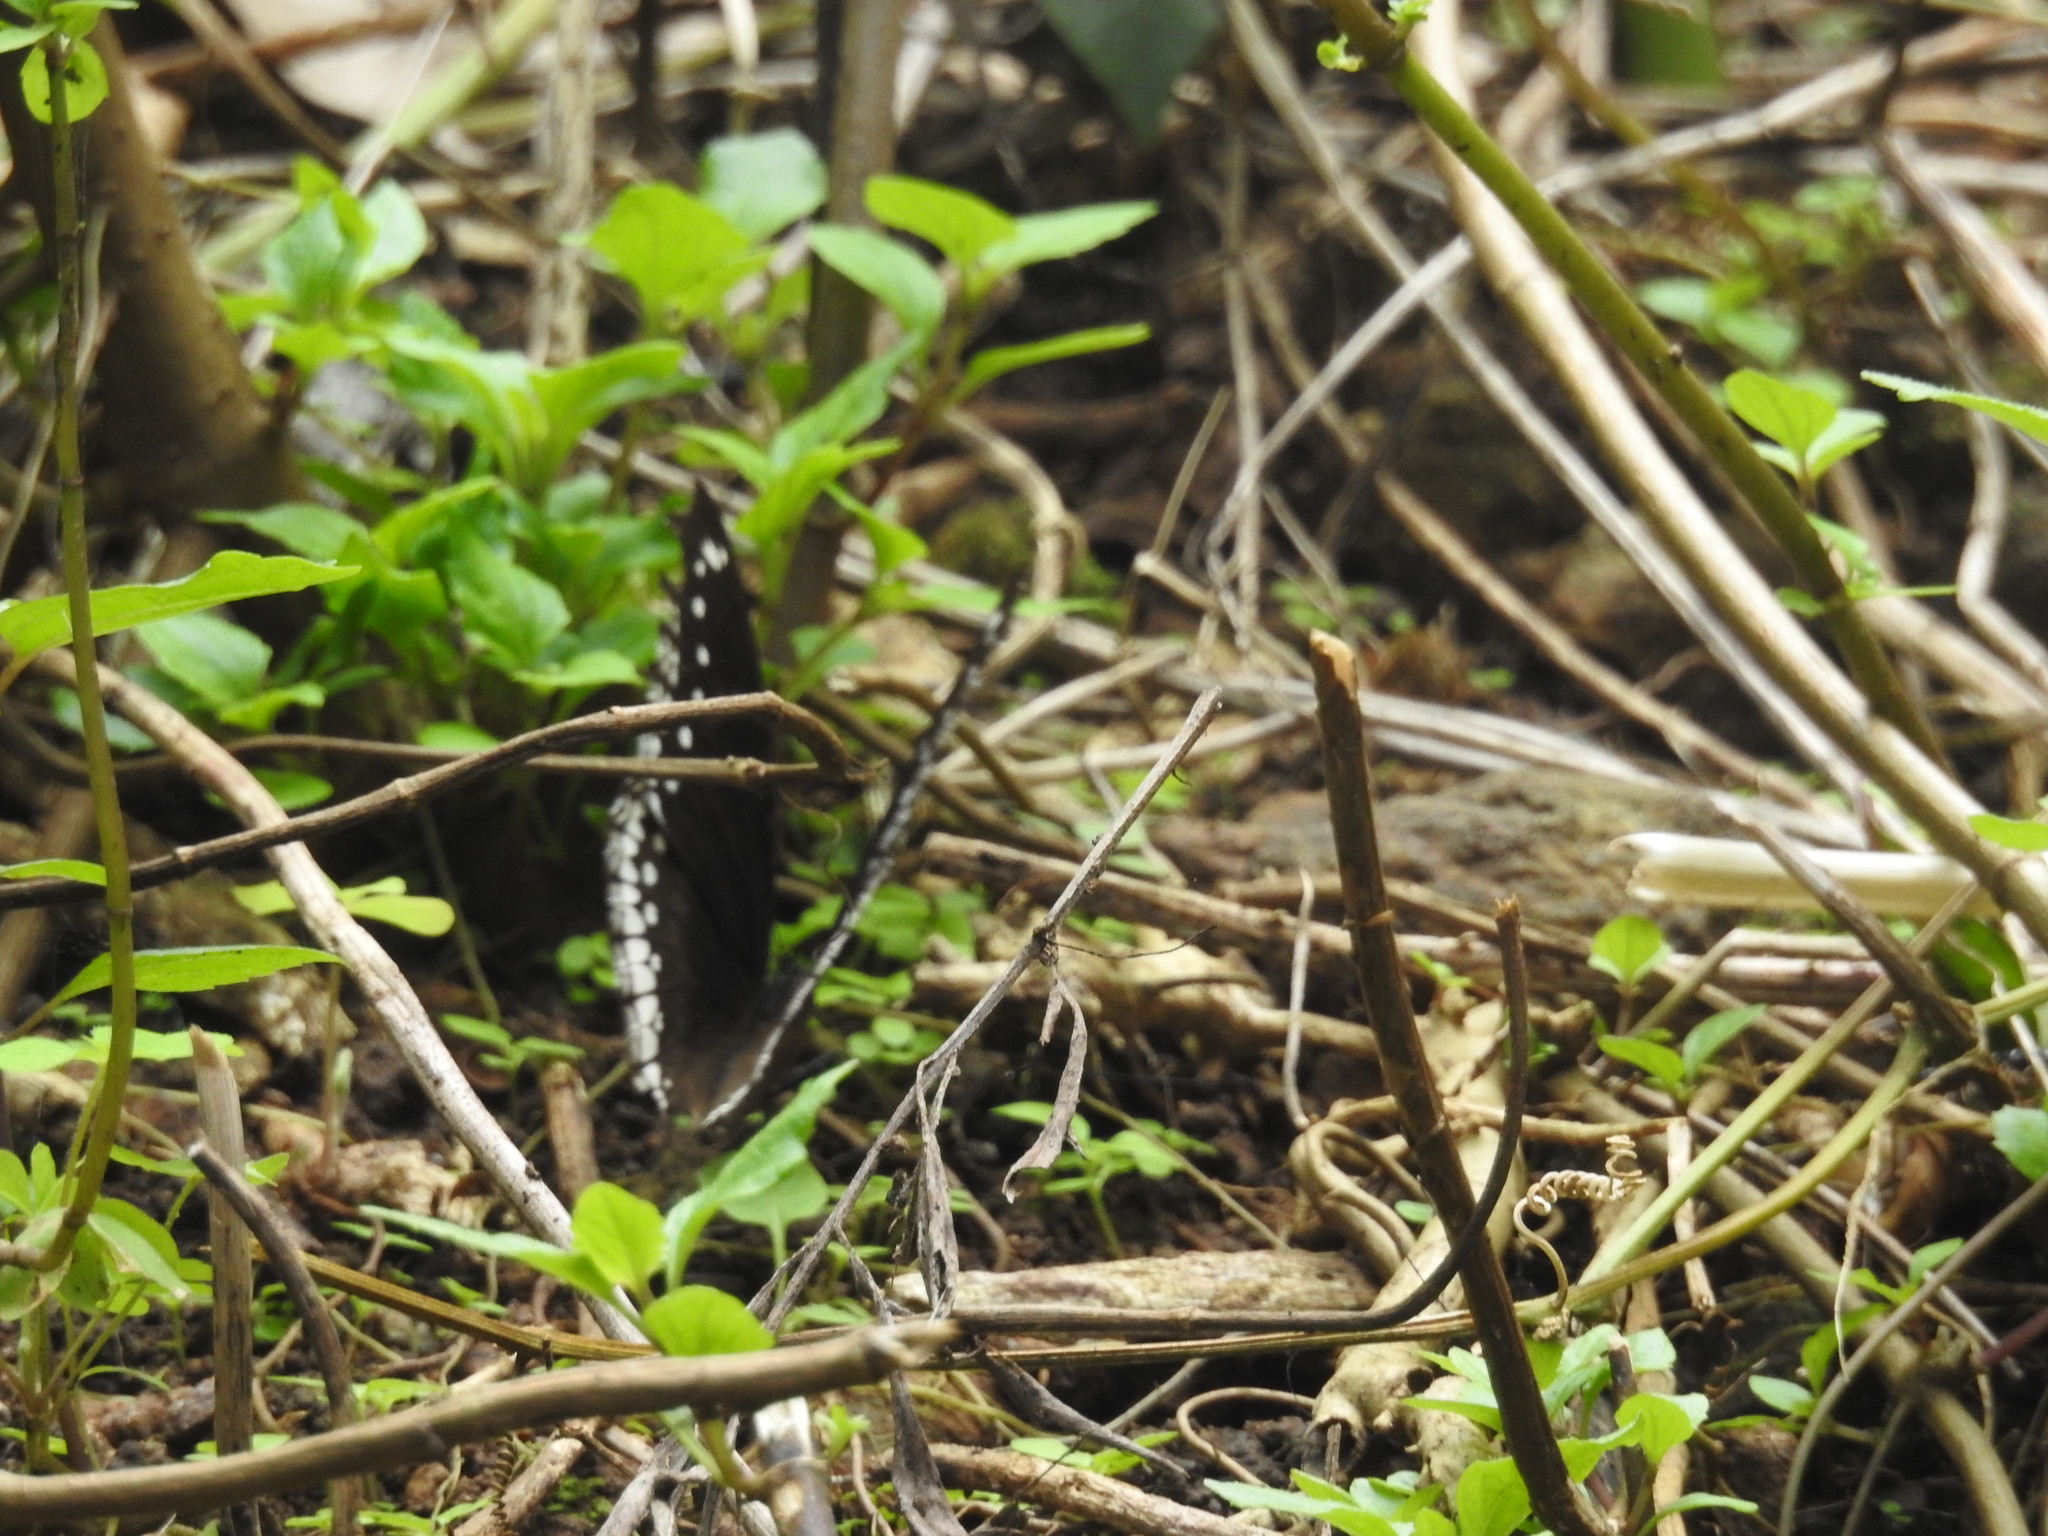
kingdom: Animalia
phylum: Arthropoda
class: Insecta
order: Lepidoptera
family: Nymphalidae
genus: Hypolimnas
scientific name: Hypolimnas bolina
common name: Great eggfly
